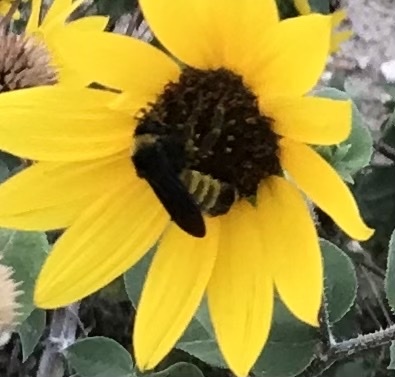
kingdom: Animalia
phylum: Arthropoda
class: Insecta
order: Hymenoptera
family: Apidae
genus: Bombus
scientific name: Bombus pensylvanicus
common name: Bumble bee
